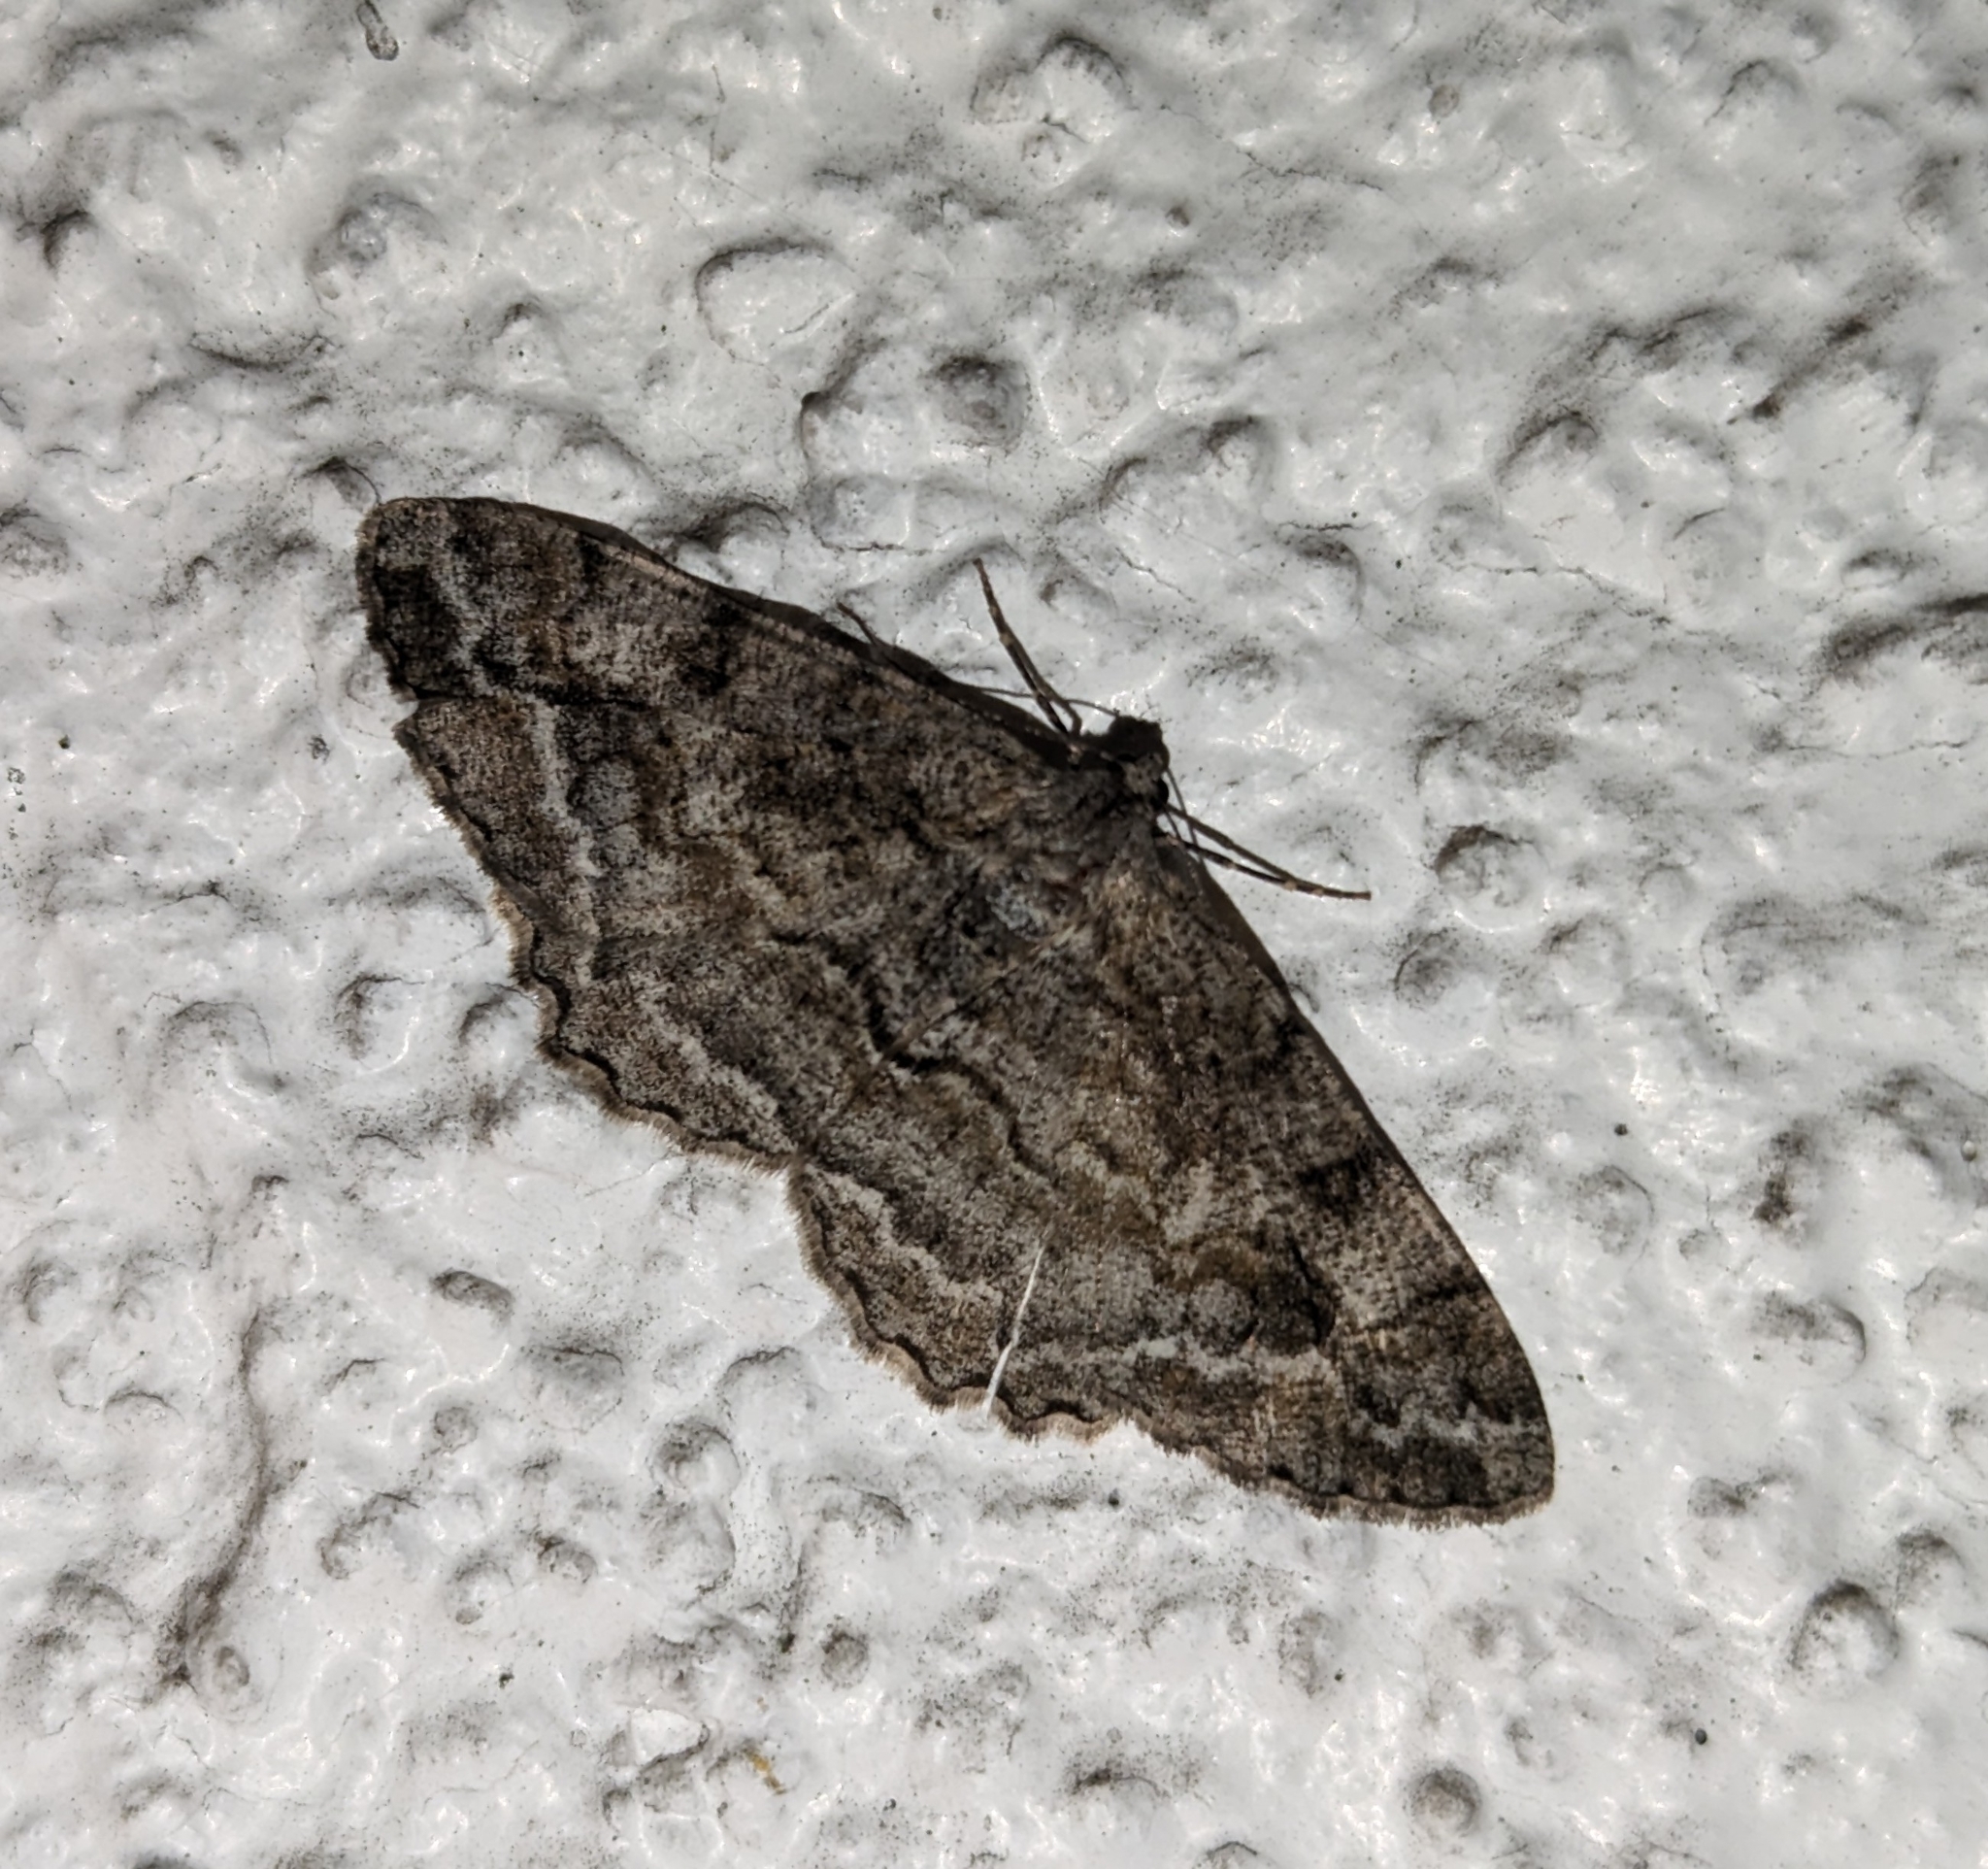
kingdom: Animalia
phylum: Arthropoda
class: Insecta
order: Lepidoptera
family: Geometridae
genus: Alcis
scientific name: Alcis repandata
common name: Mottled beauty
